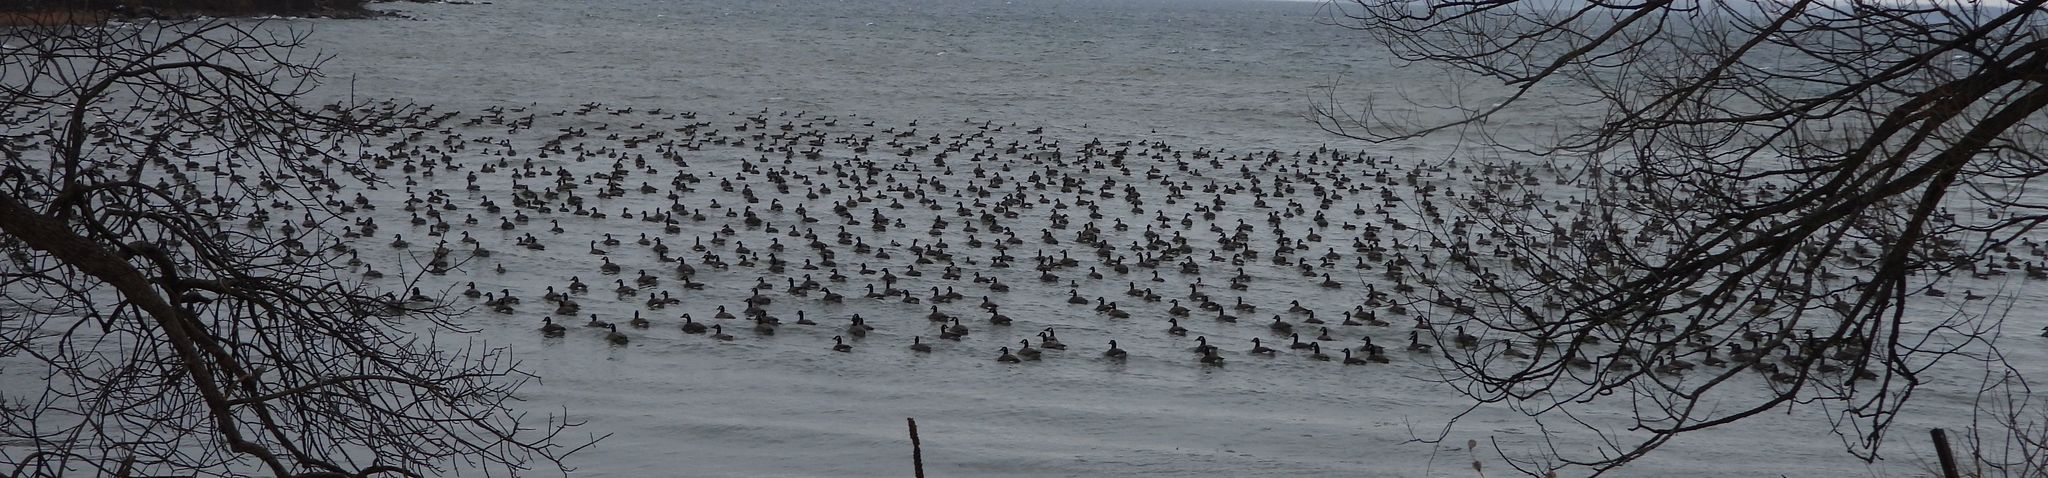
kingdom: Animalia
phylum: Chordata
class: Aves
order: Anseriformes
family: Anatidae
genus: Branta
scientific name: Branta canadensis
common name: Canada goose
